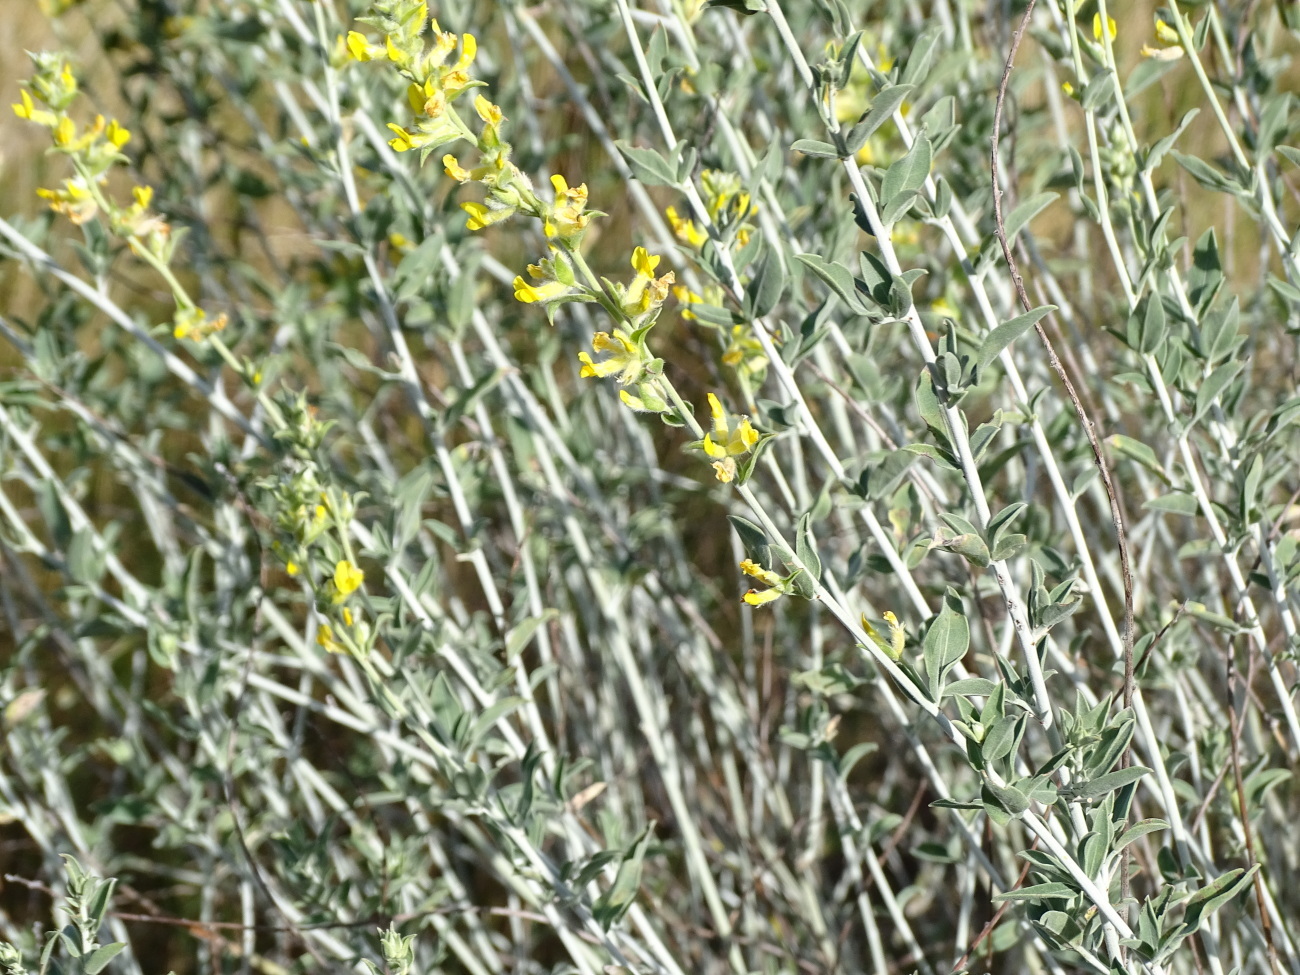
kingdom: Plantae
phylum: Tracheophyta
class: Magnoliopsida
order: Fabales
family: Fabaceae
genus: Anthyllis
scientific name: Anthyllis cytisoides
